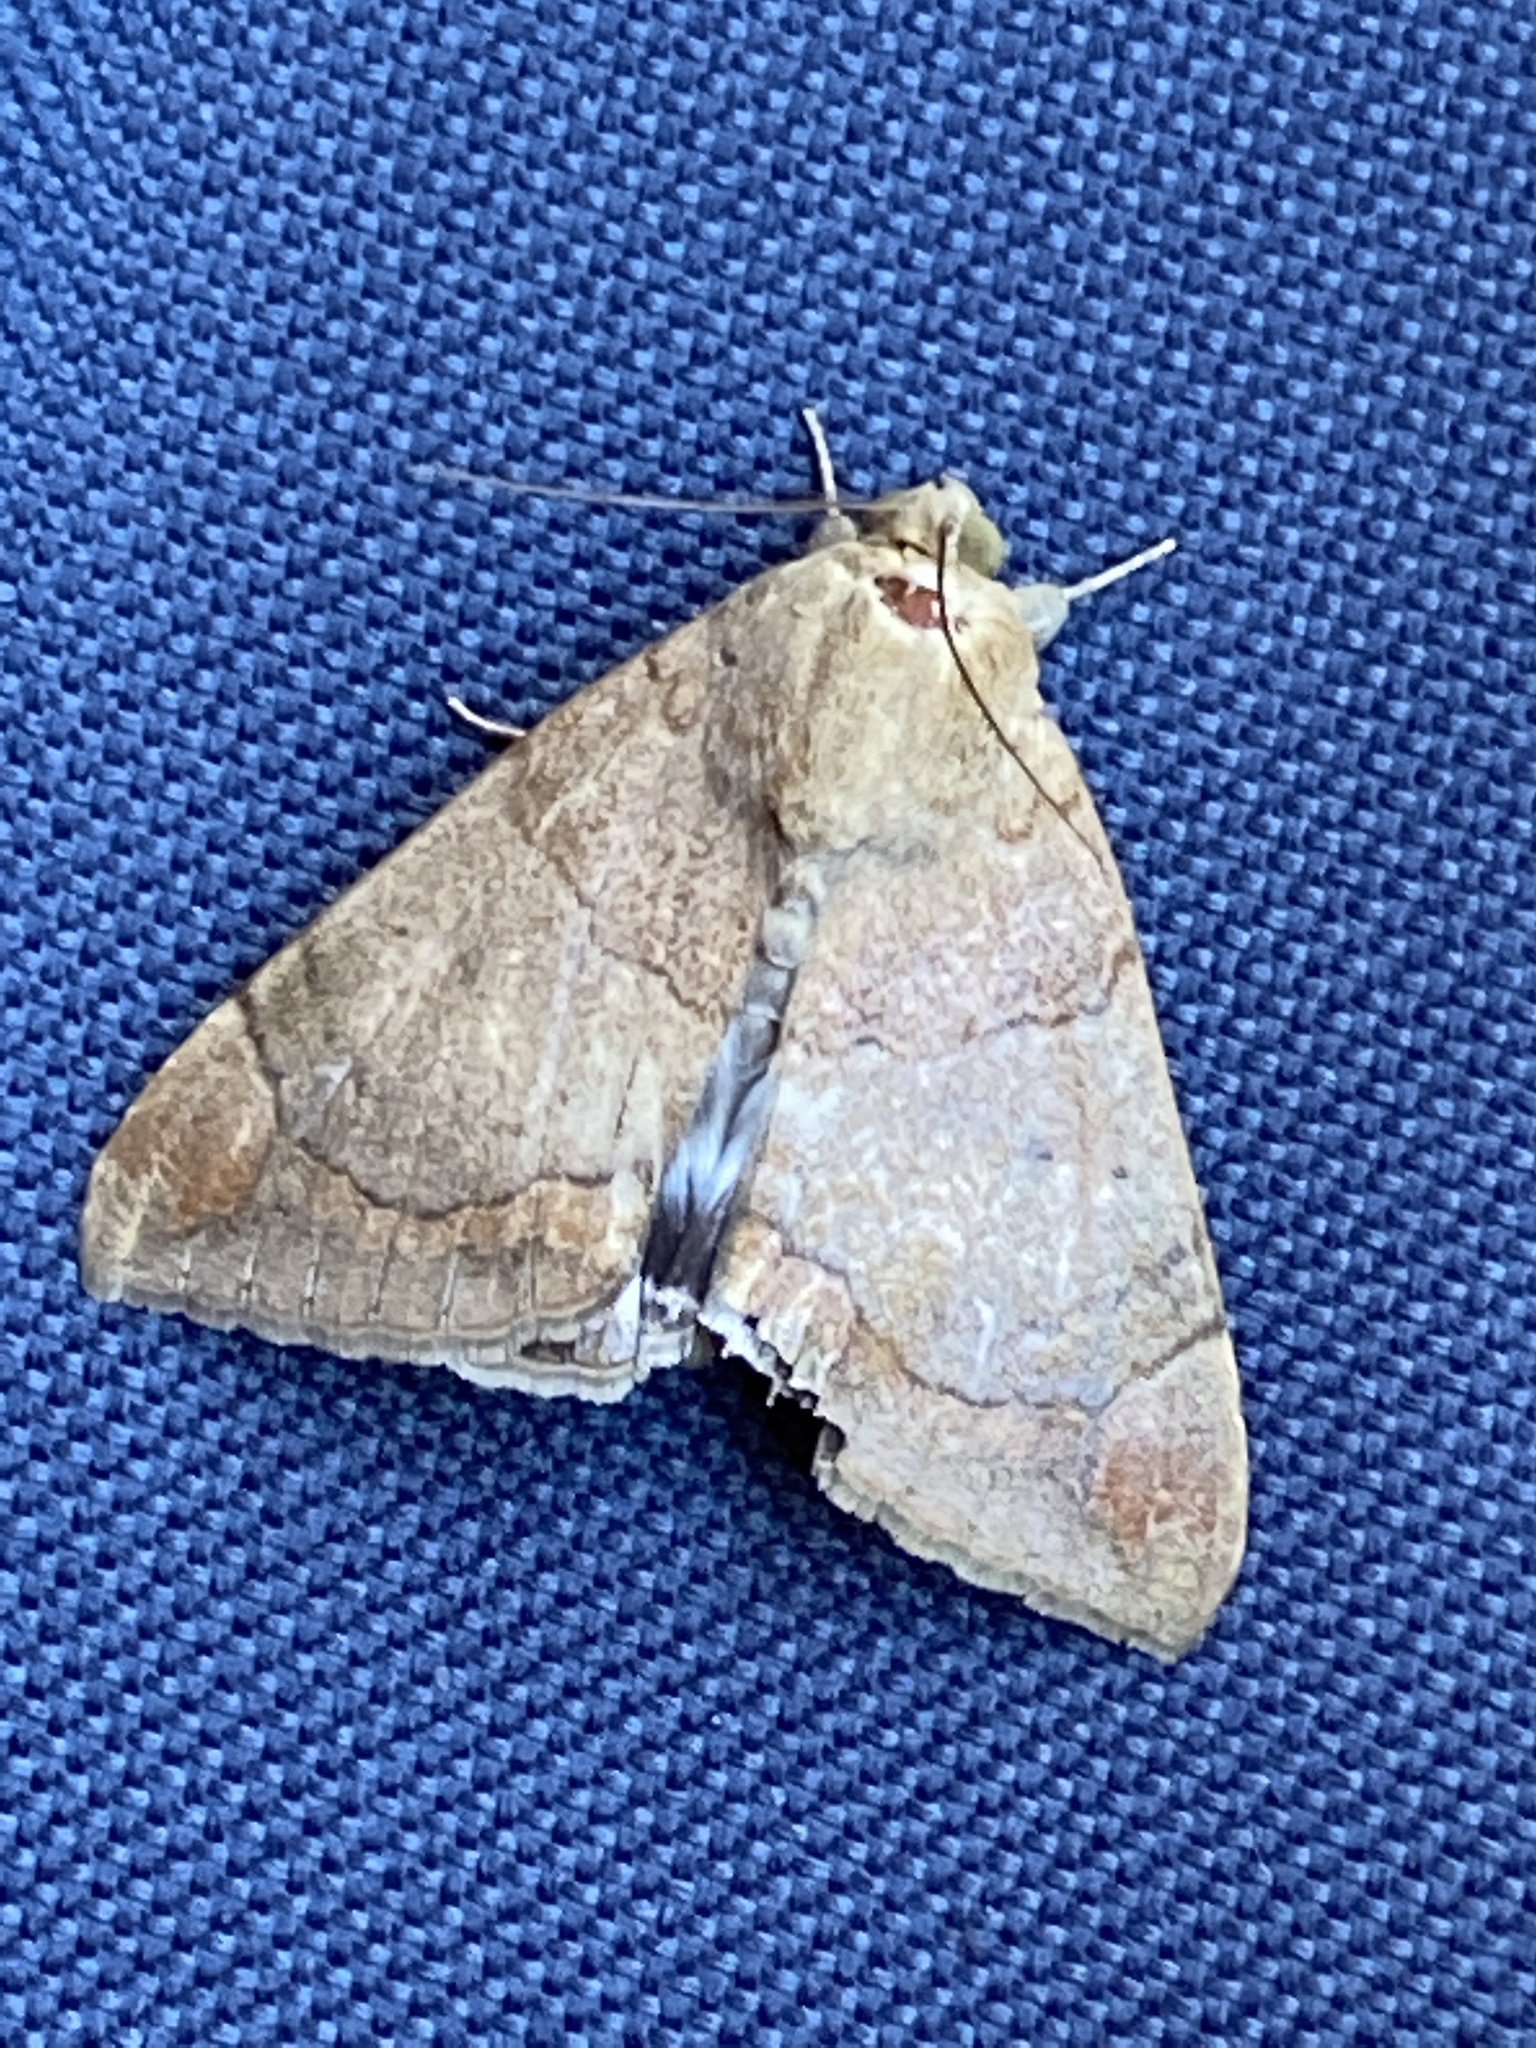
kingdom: Animalia
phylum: Arthropoda
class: Insecta
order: Lepidoptera
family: Erebidae
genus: Achaea
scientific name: Achaea janata
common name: Croton caterpillar
